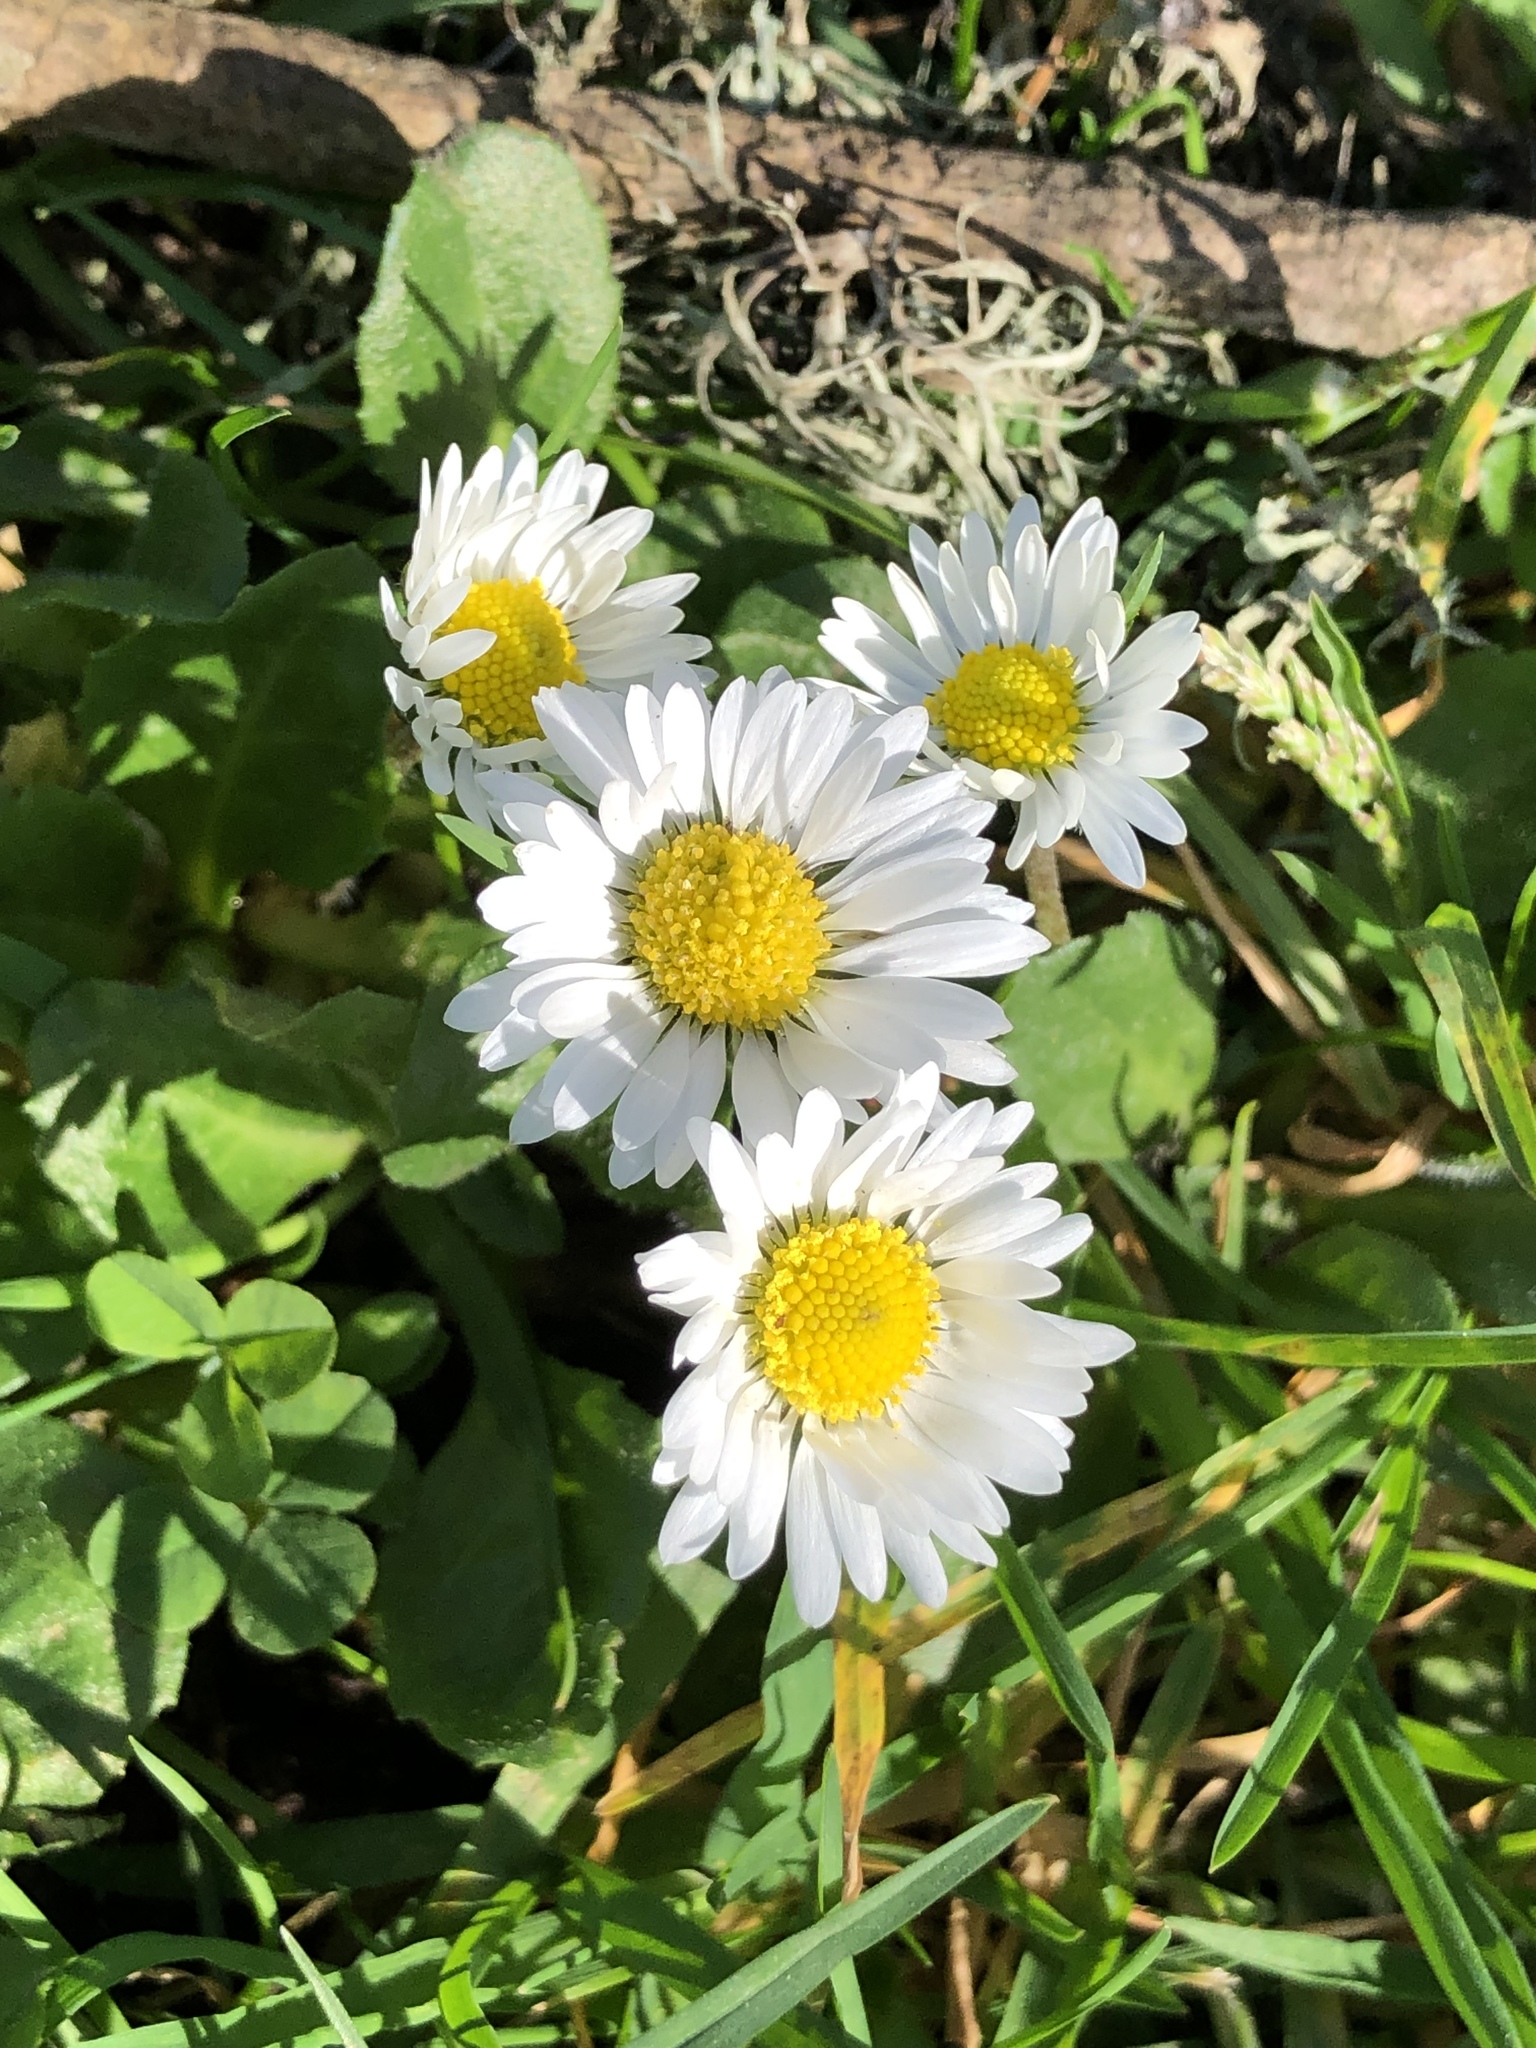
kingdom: Plantae
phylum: Tracheophyta
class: Magnoliopsida
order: Asterales
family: Asteraceae
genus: Bellis
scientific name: Bellis perennis
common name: Lawndaisy
